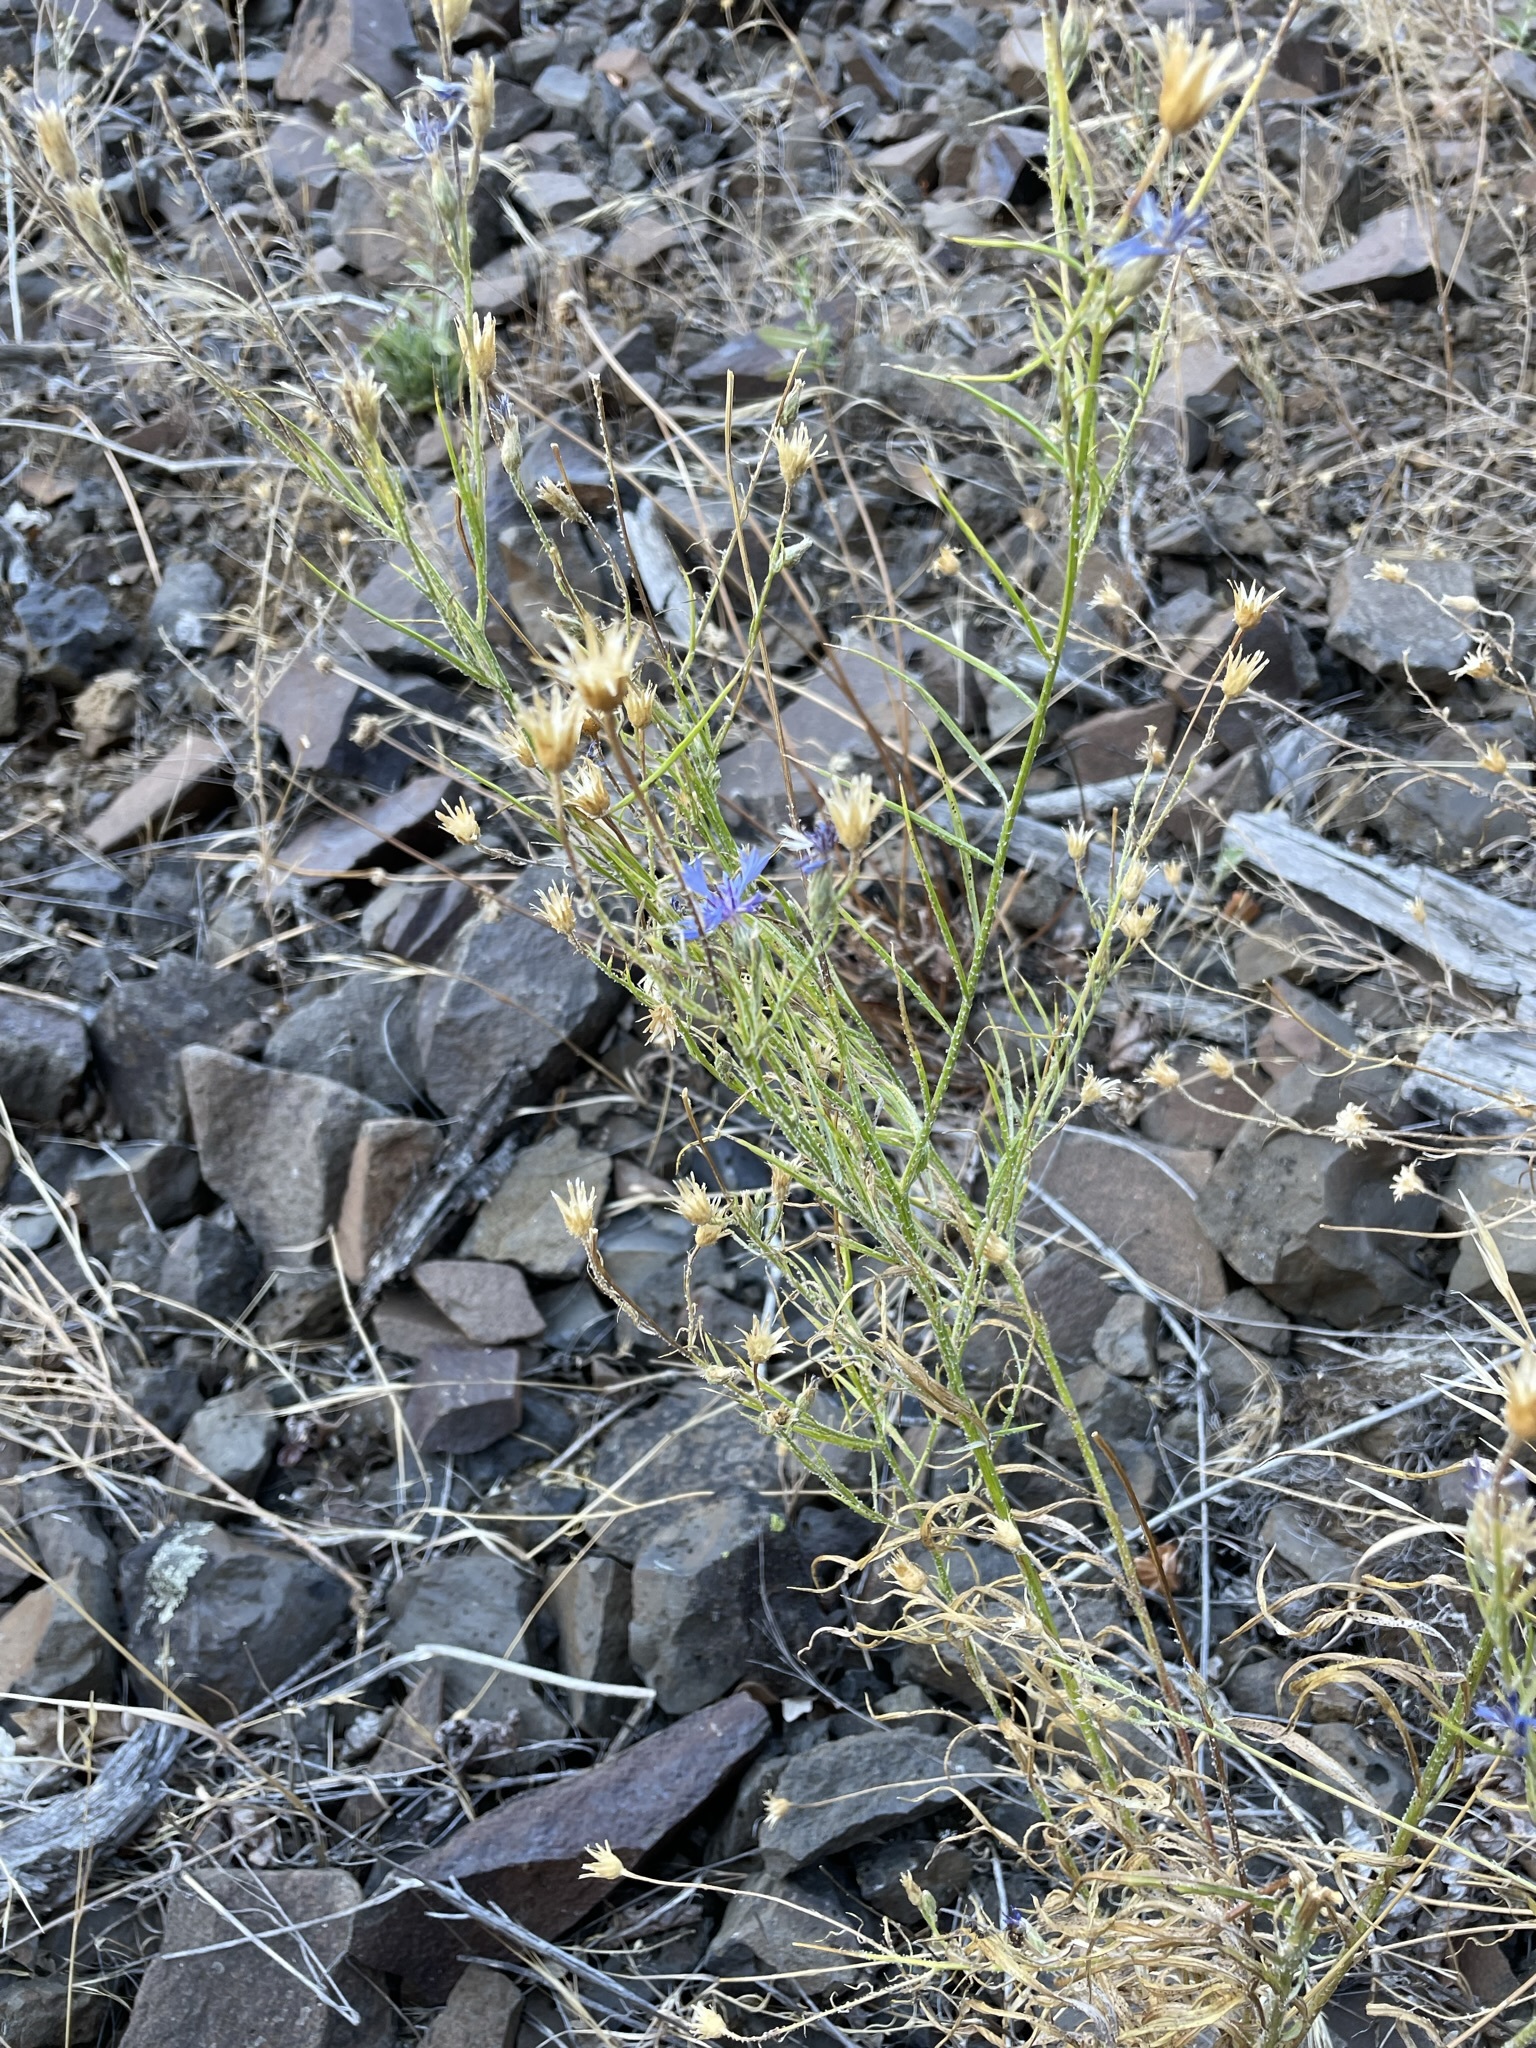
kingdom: Plantae
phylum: Tracheophyta
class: Magnoliopsida
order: Asterales
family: Asteraceae
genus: Centaurea
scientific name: Centaurea cyanus
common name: Cornflower
